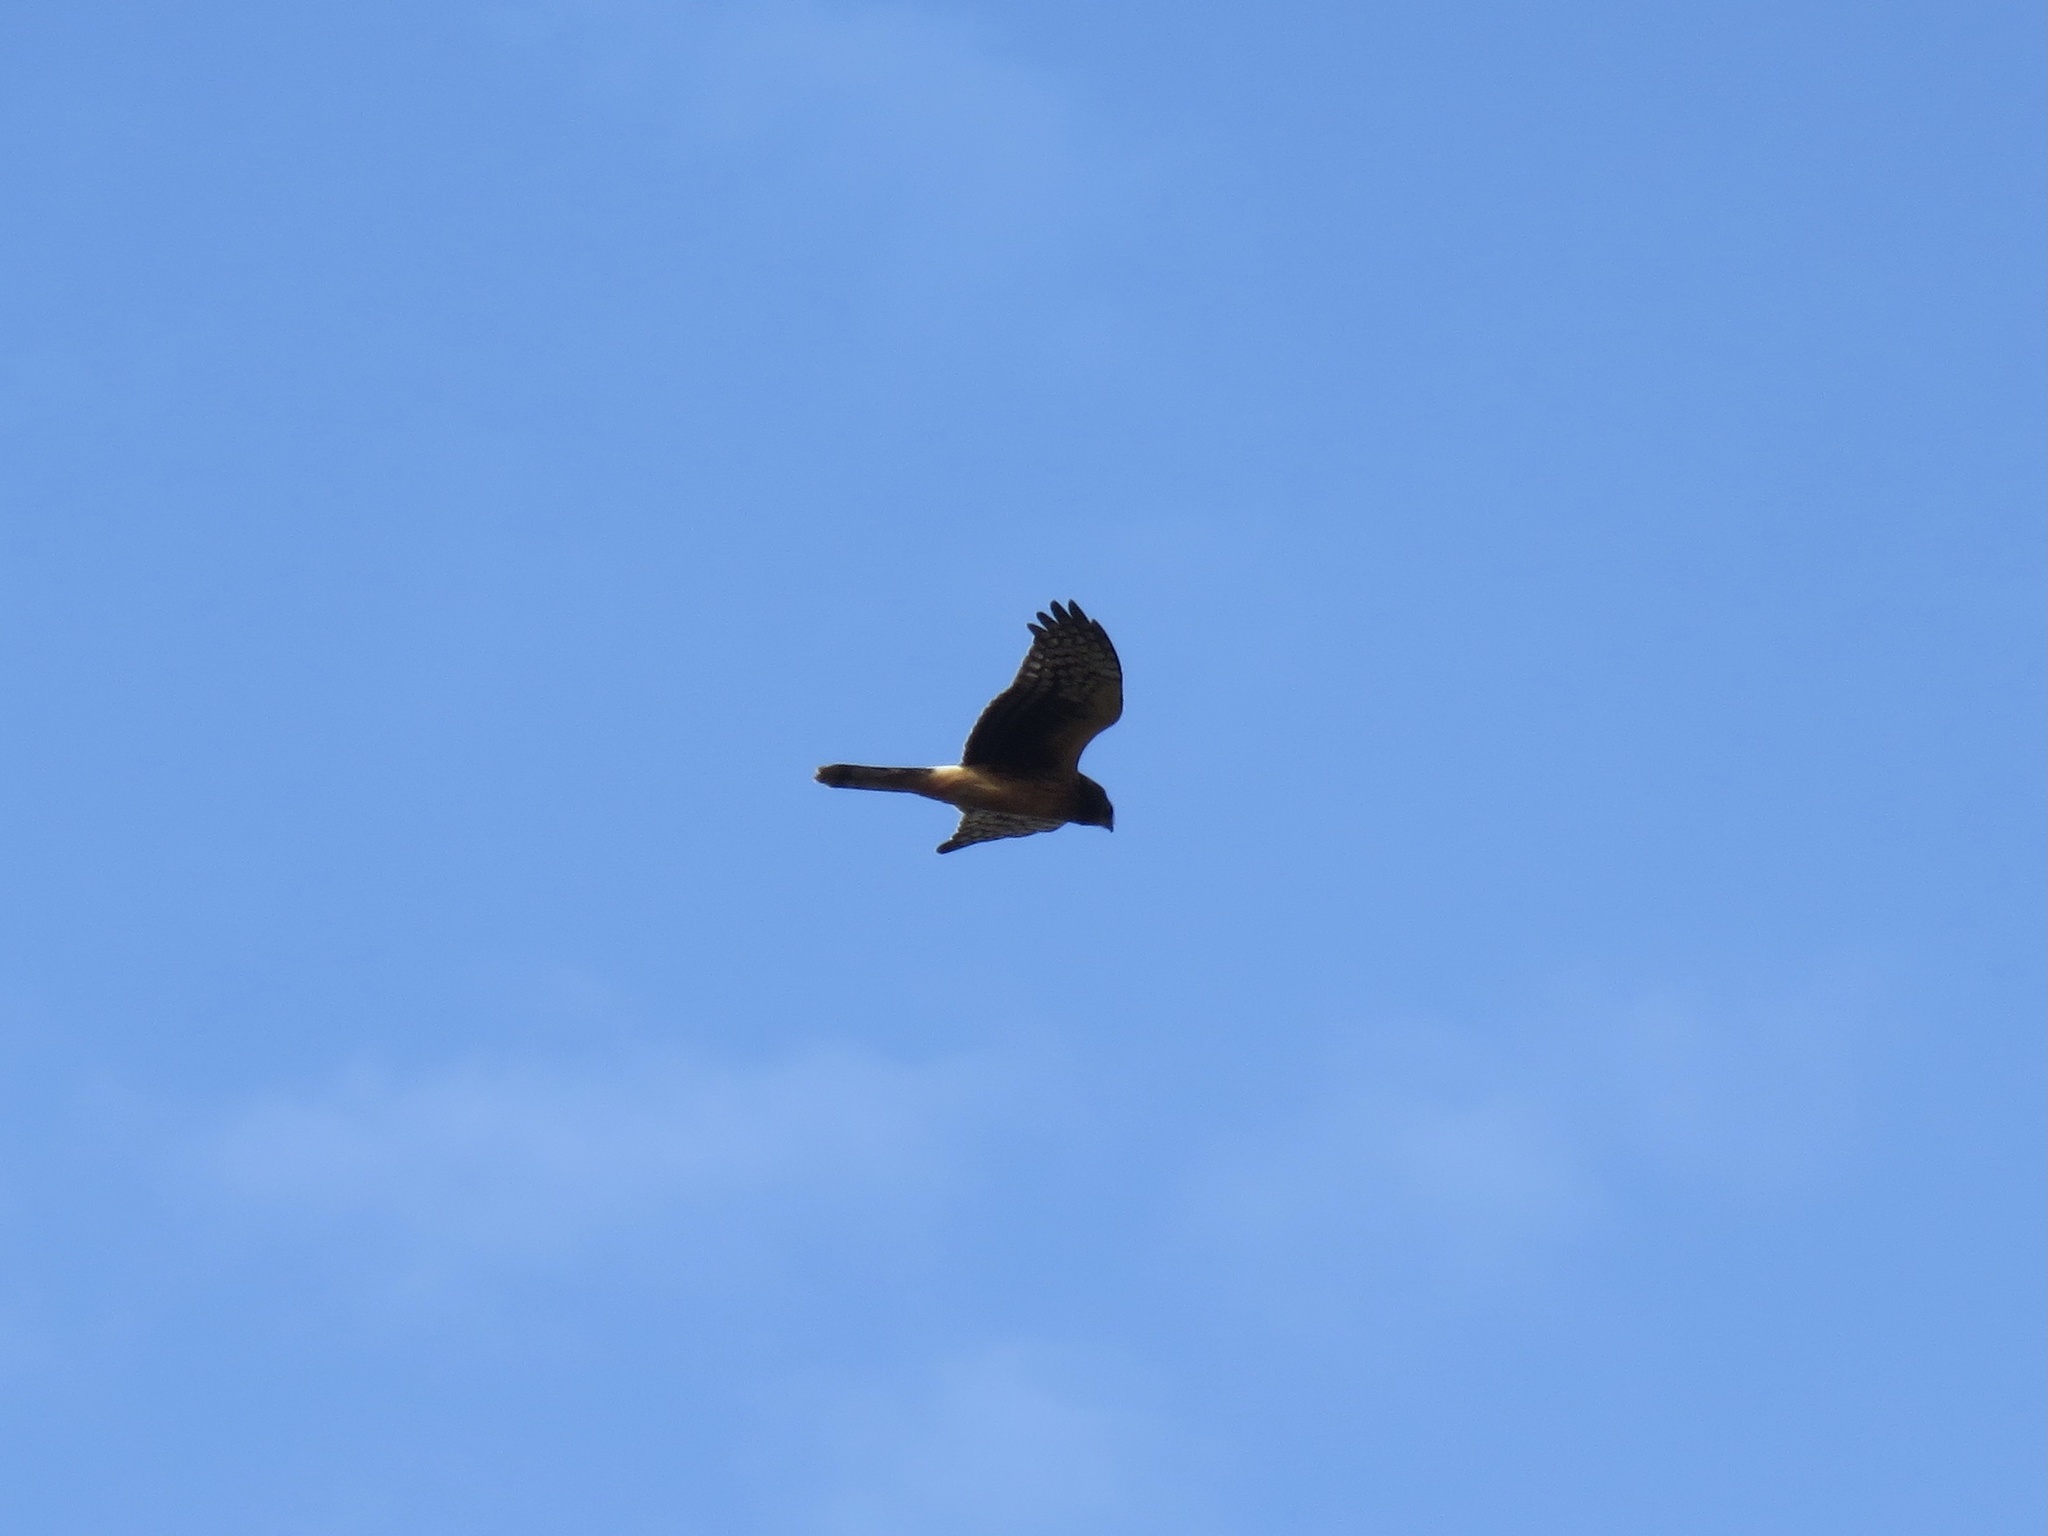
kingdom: Animalia
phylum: Chordata
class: Aves
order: Accipitriformes
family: Accipitridae
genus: Circus
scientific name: Circus cyaneus
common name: Hen harrier
